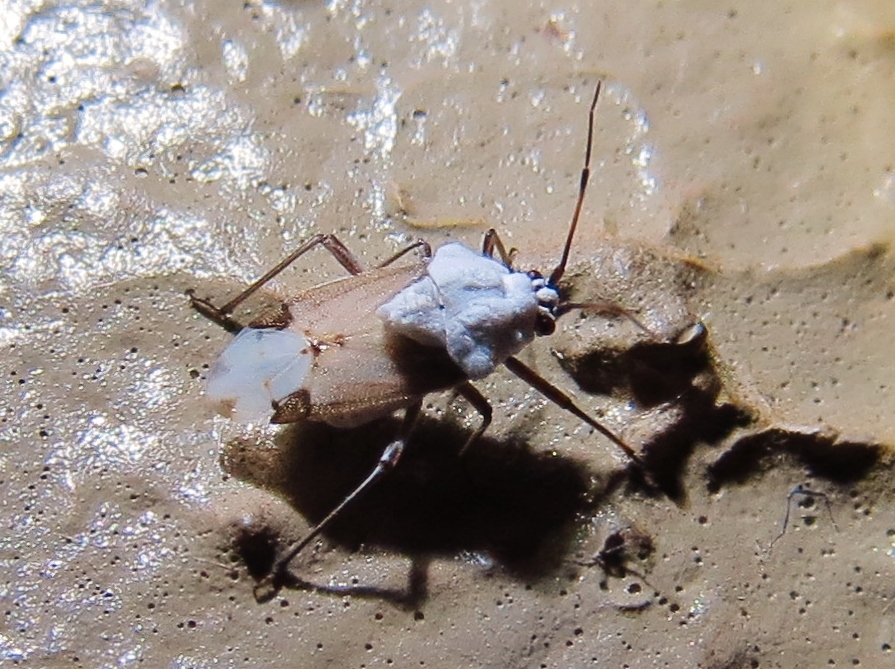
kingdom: Animalia
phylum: Arthropoda
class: Insecta
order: Hemiptera
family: Miridae
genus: Clivinema
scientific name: Clivinema villosa
